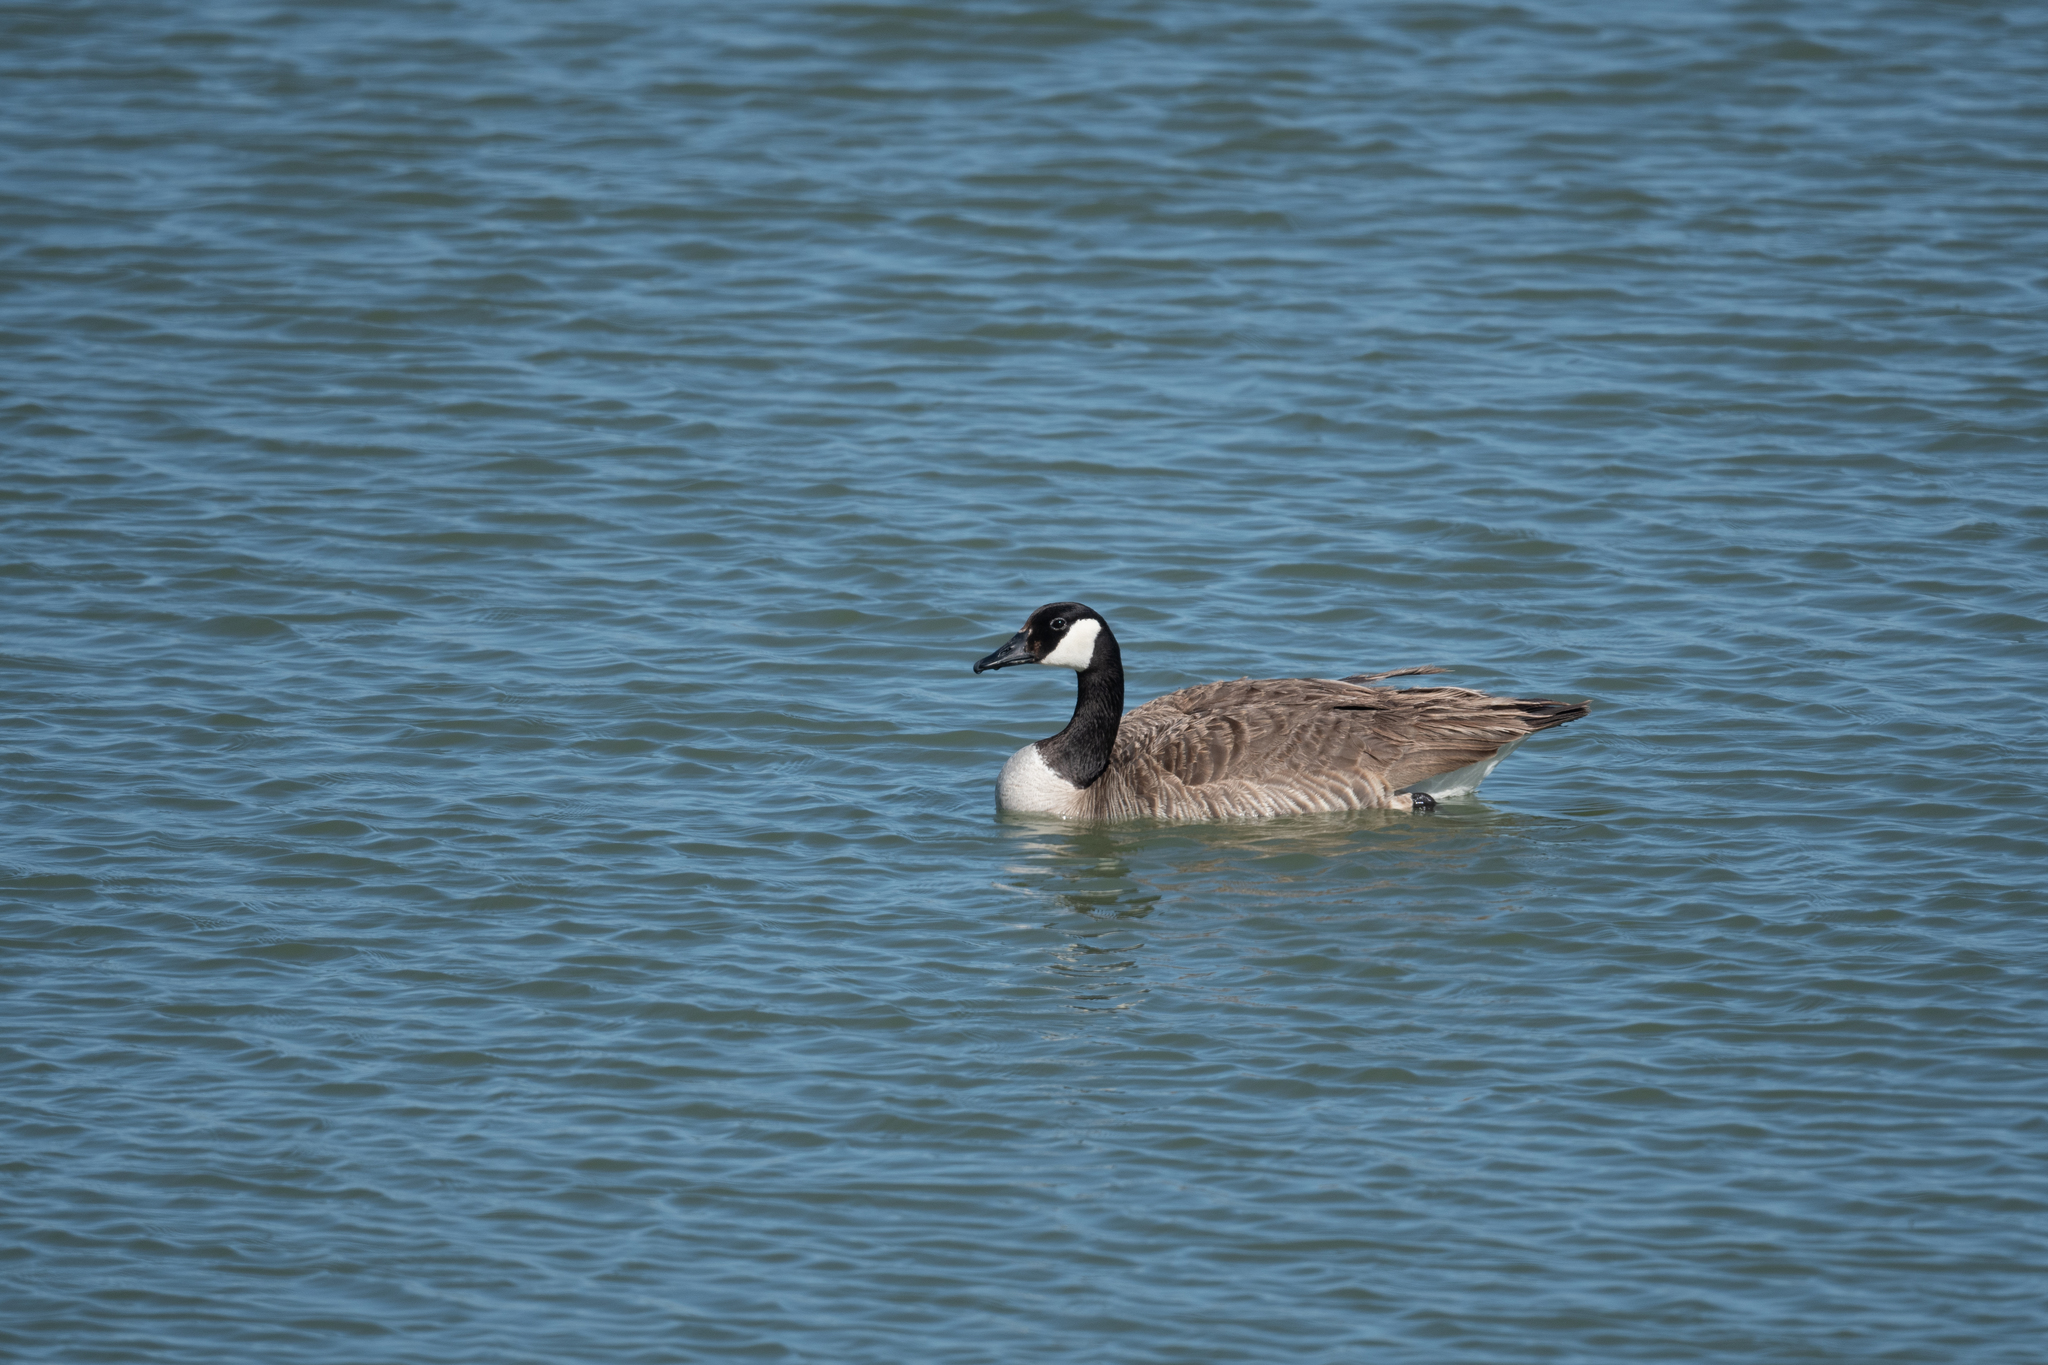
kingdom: Animalia
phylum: Chordata
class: Aves
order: Anseriformes
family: Anatidae
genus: Branta
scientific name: Branta canadensis
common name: Canada goose
